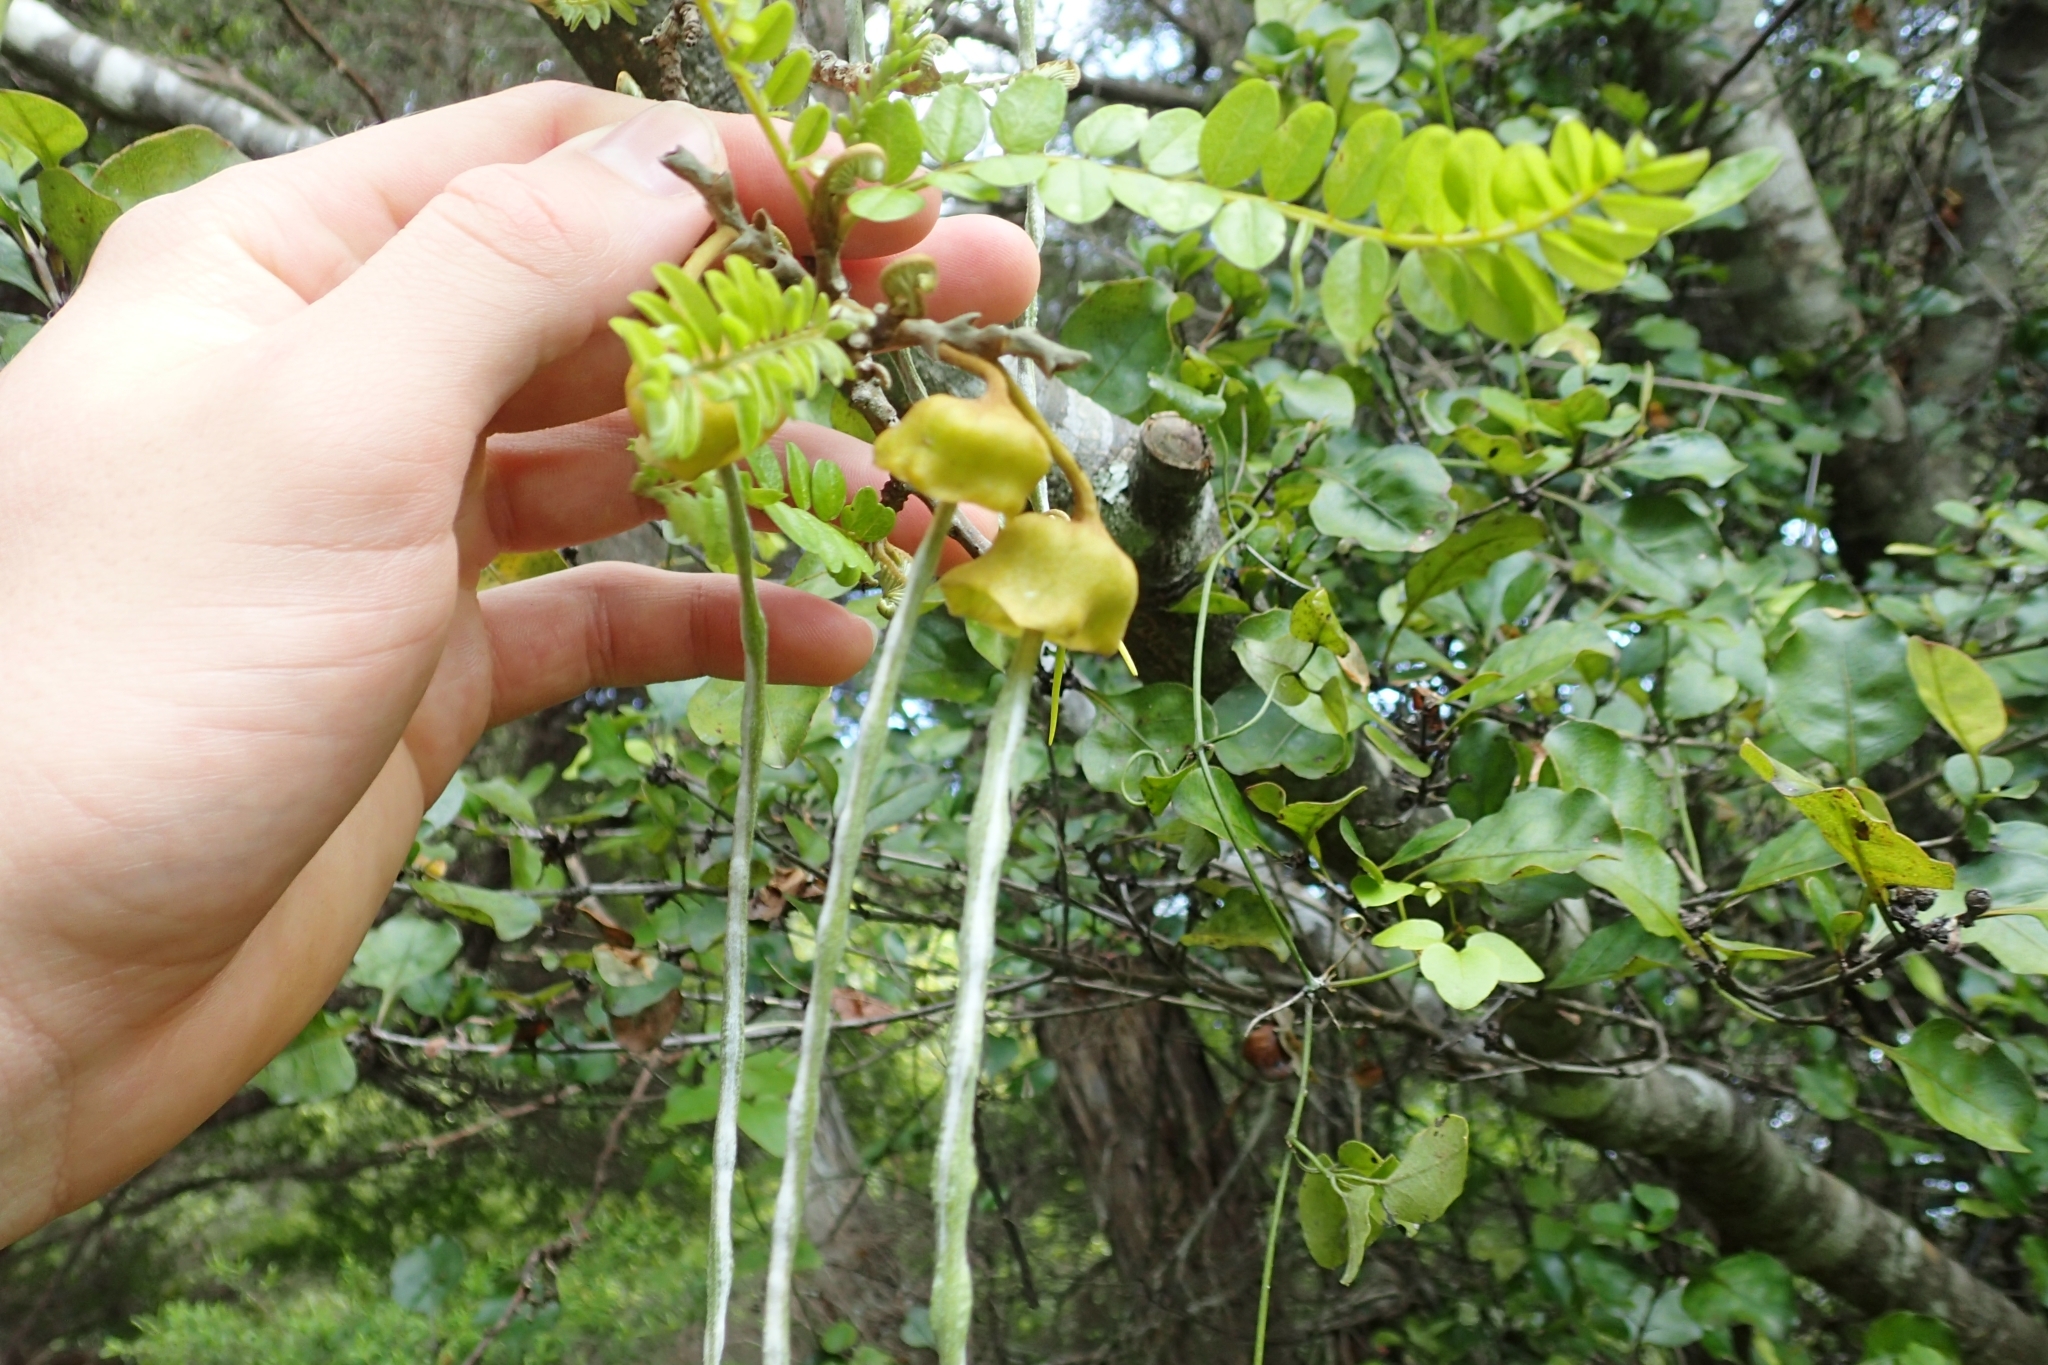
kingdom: Plantae
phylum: Tracheophyta
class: Magnoliopsida
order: Fabales
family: Fabaceae
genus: Sophora
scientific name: Sophora chathamica
